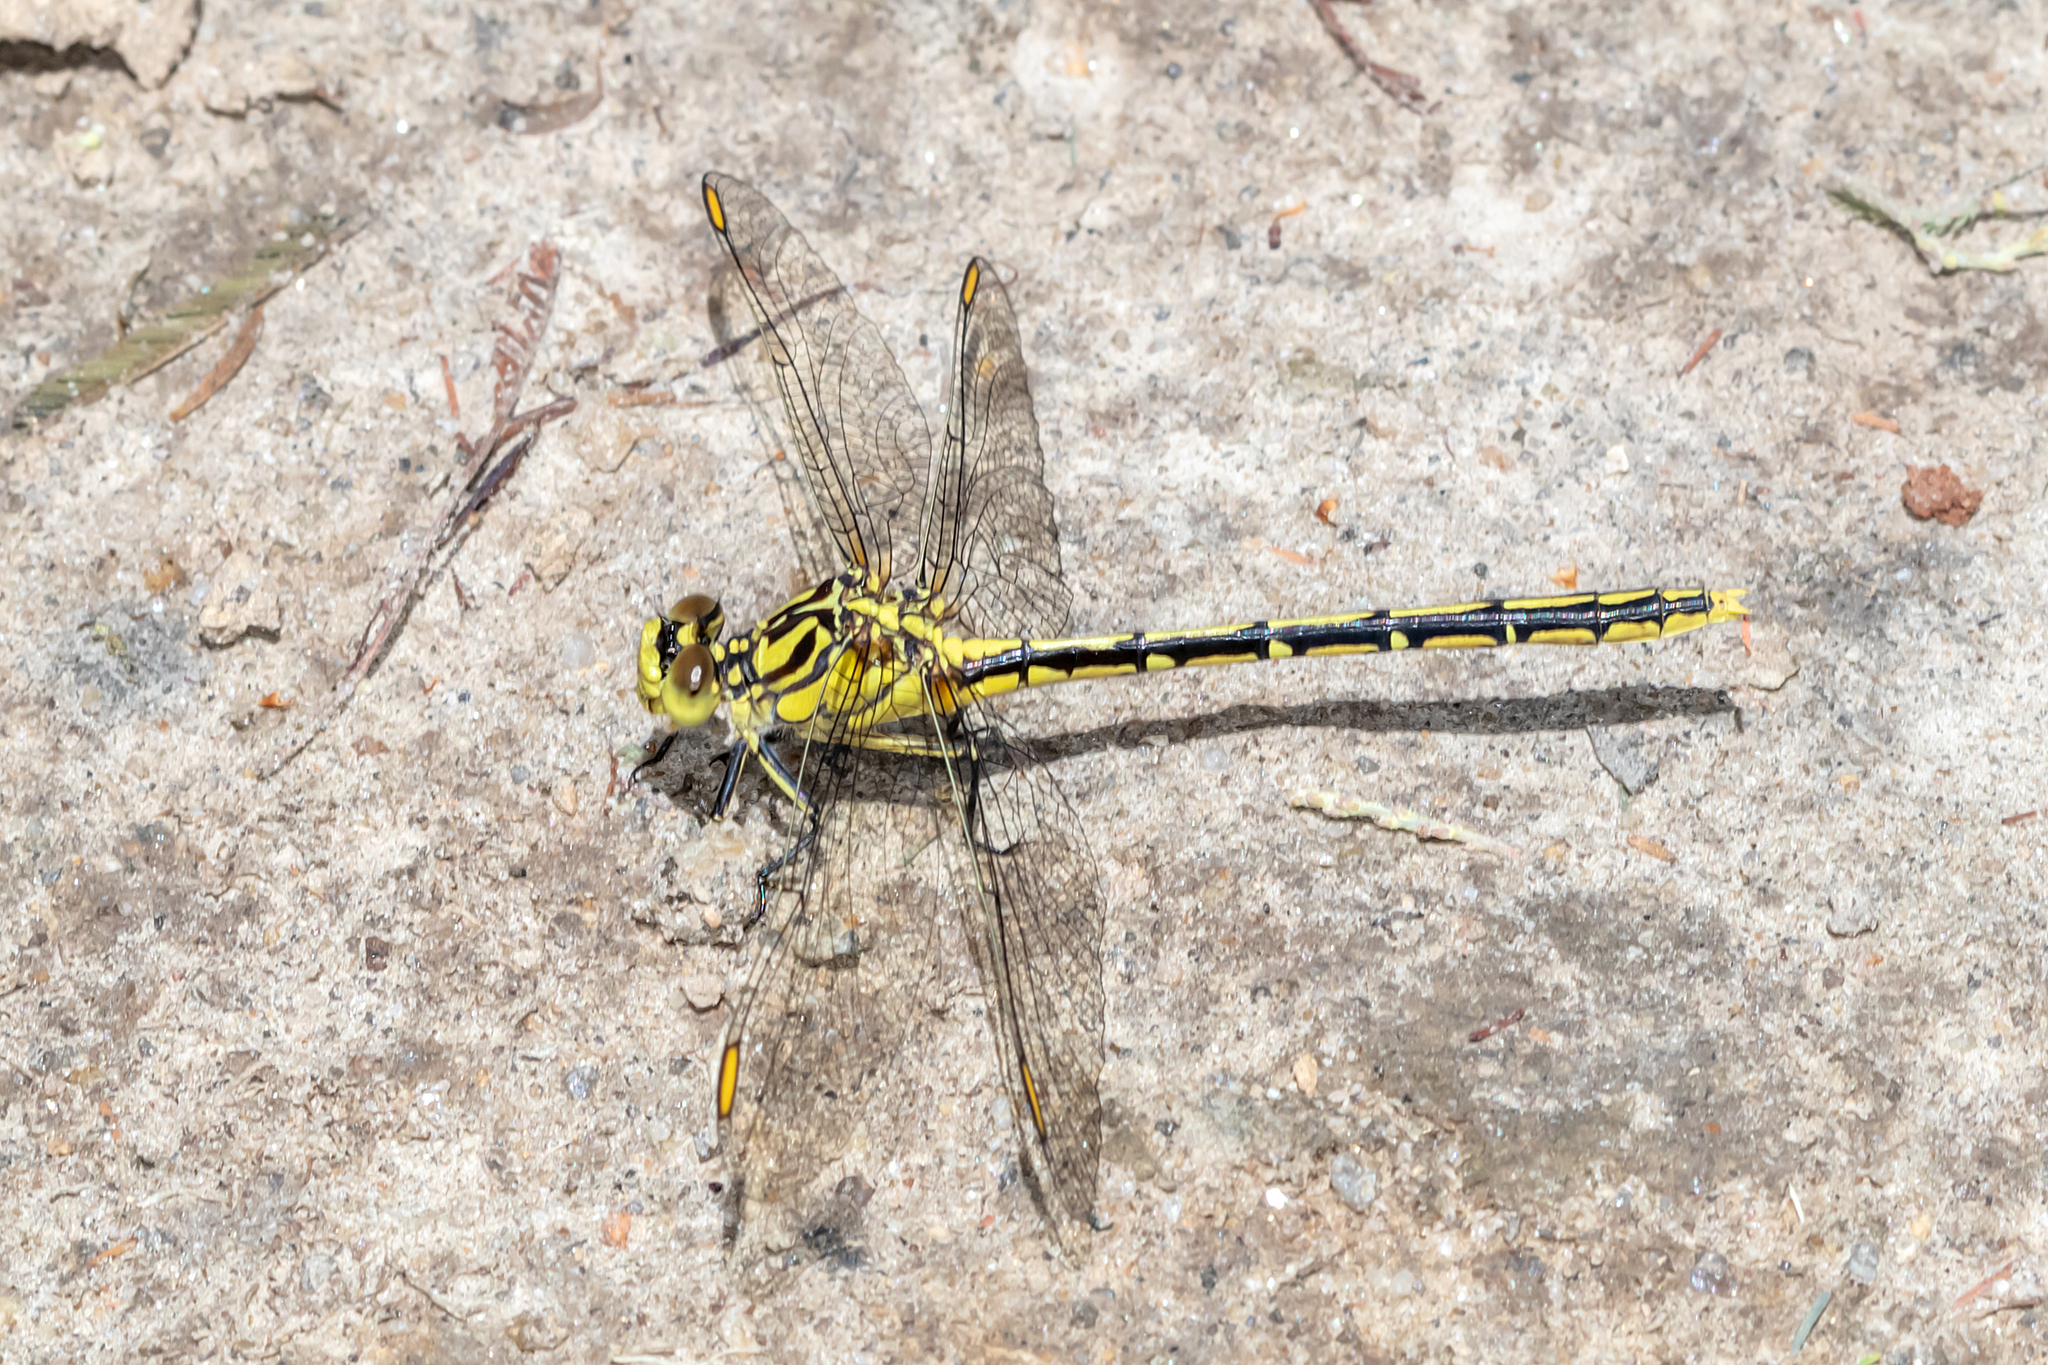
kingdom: Animalia
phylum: Arthropoda
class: Insecta
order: Odonata
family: Gomphidae
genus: Austrogomphus
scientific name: Austrogomphus guerini
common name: Yellow-striped hunter
